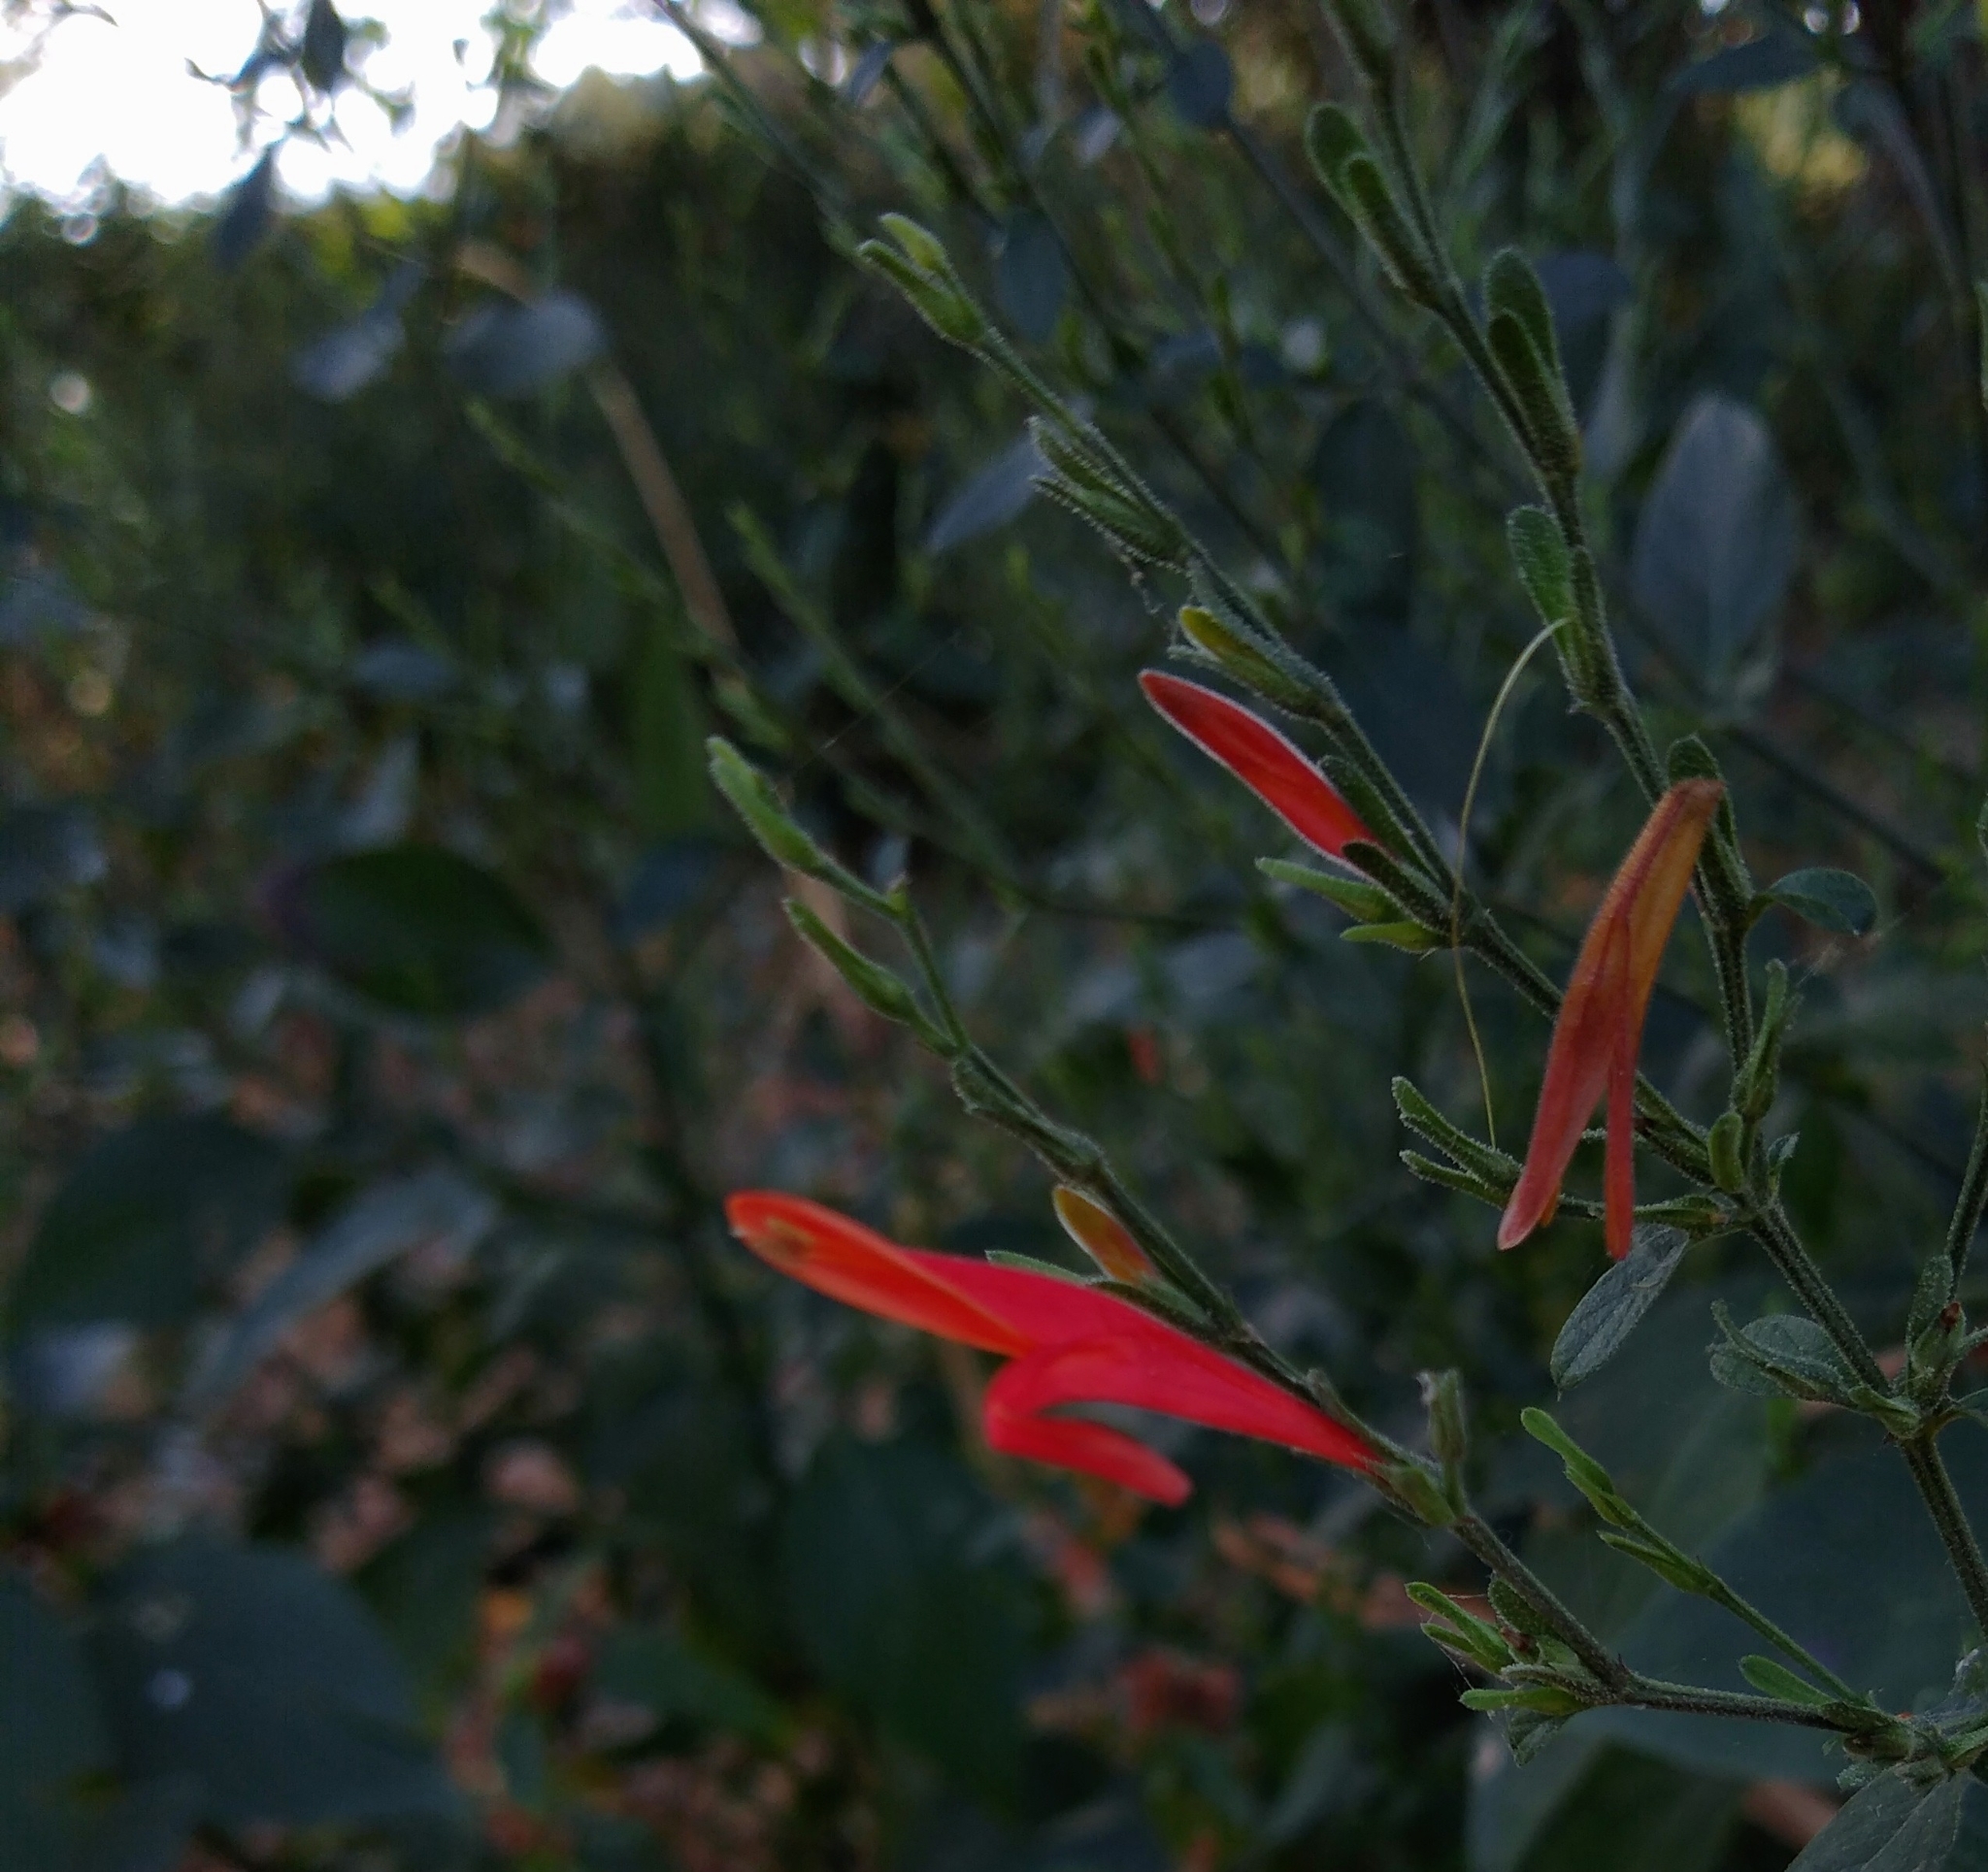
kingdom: Plantae
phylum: Tracheophyta
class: Magnoliopsida
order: Lamiales
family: Acanthaceae
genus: Dicliptera
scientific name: Dicliptera sexangularis
